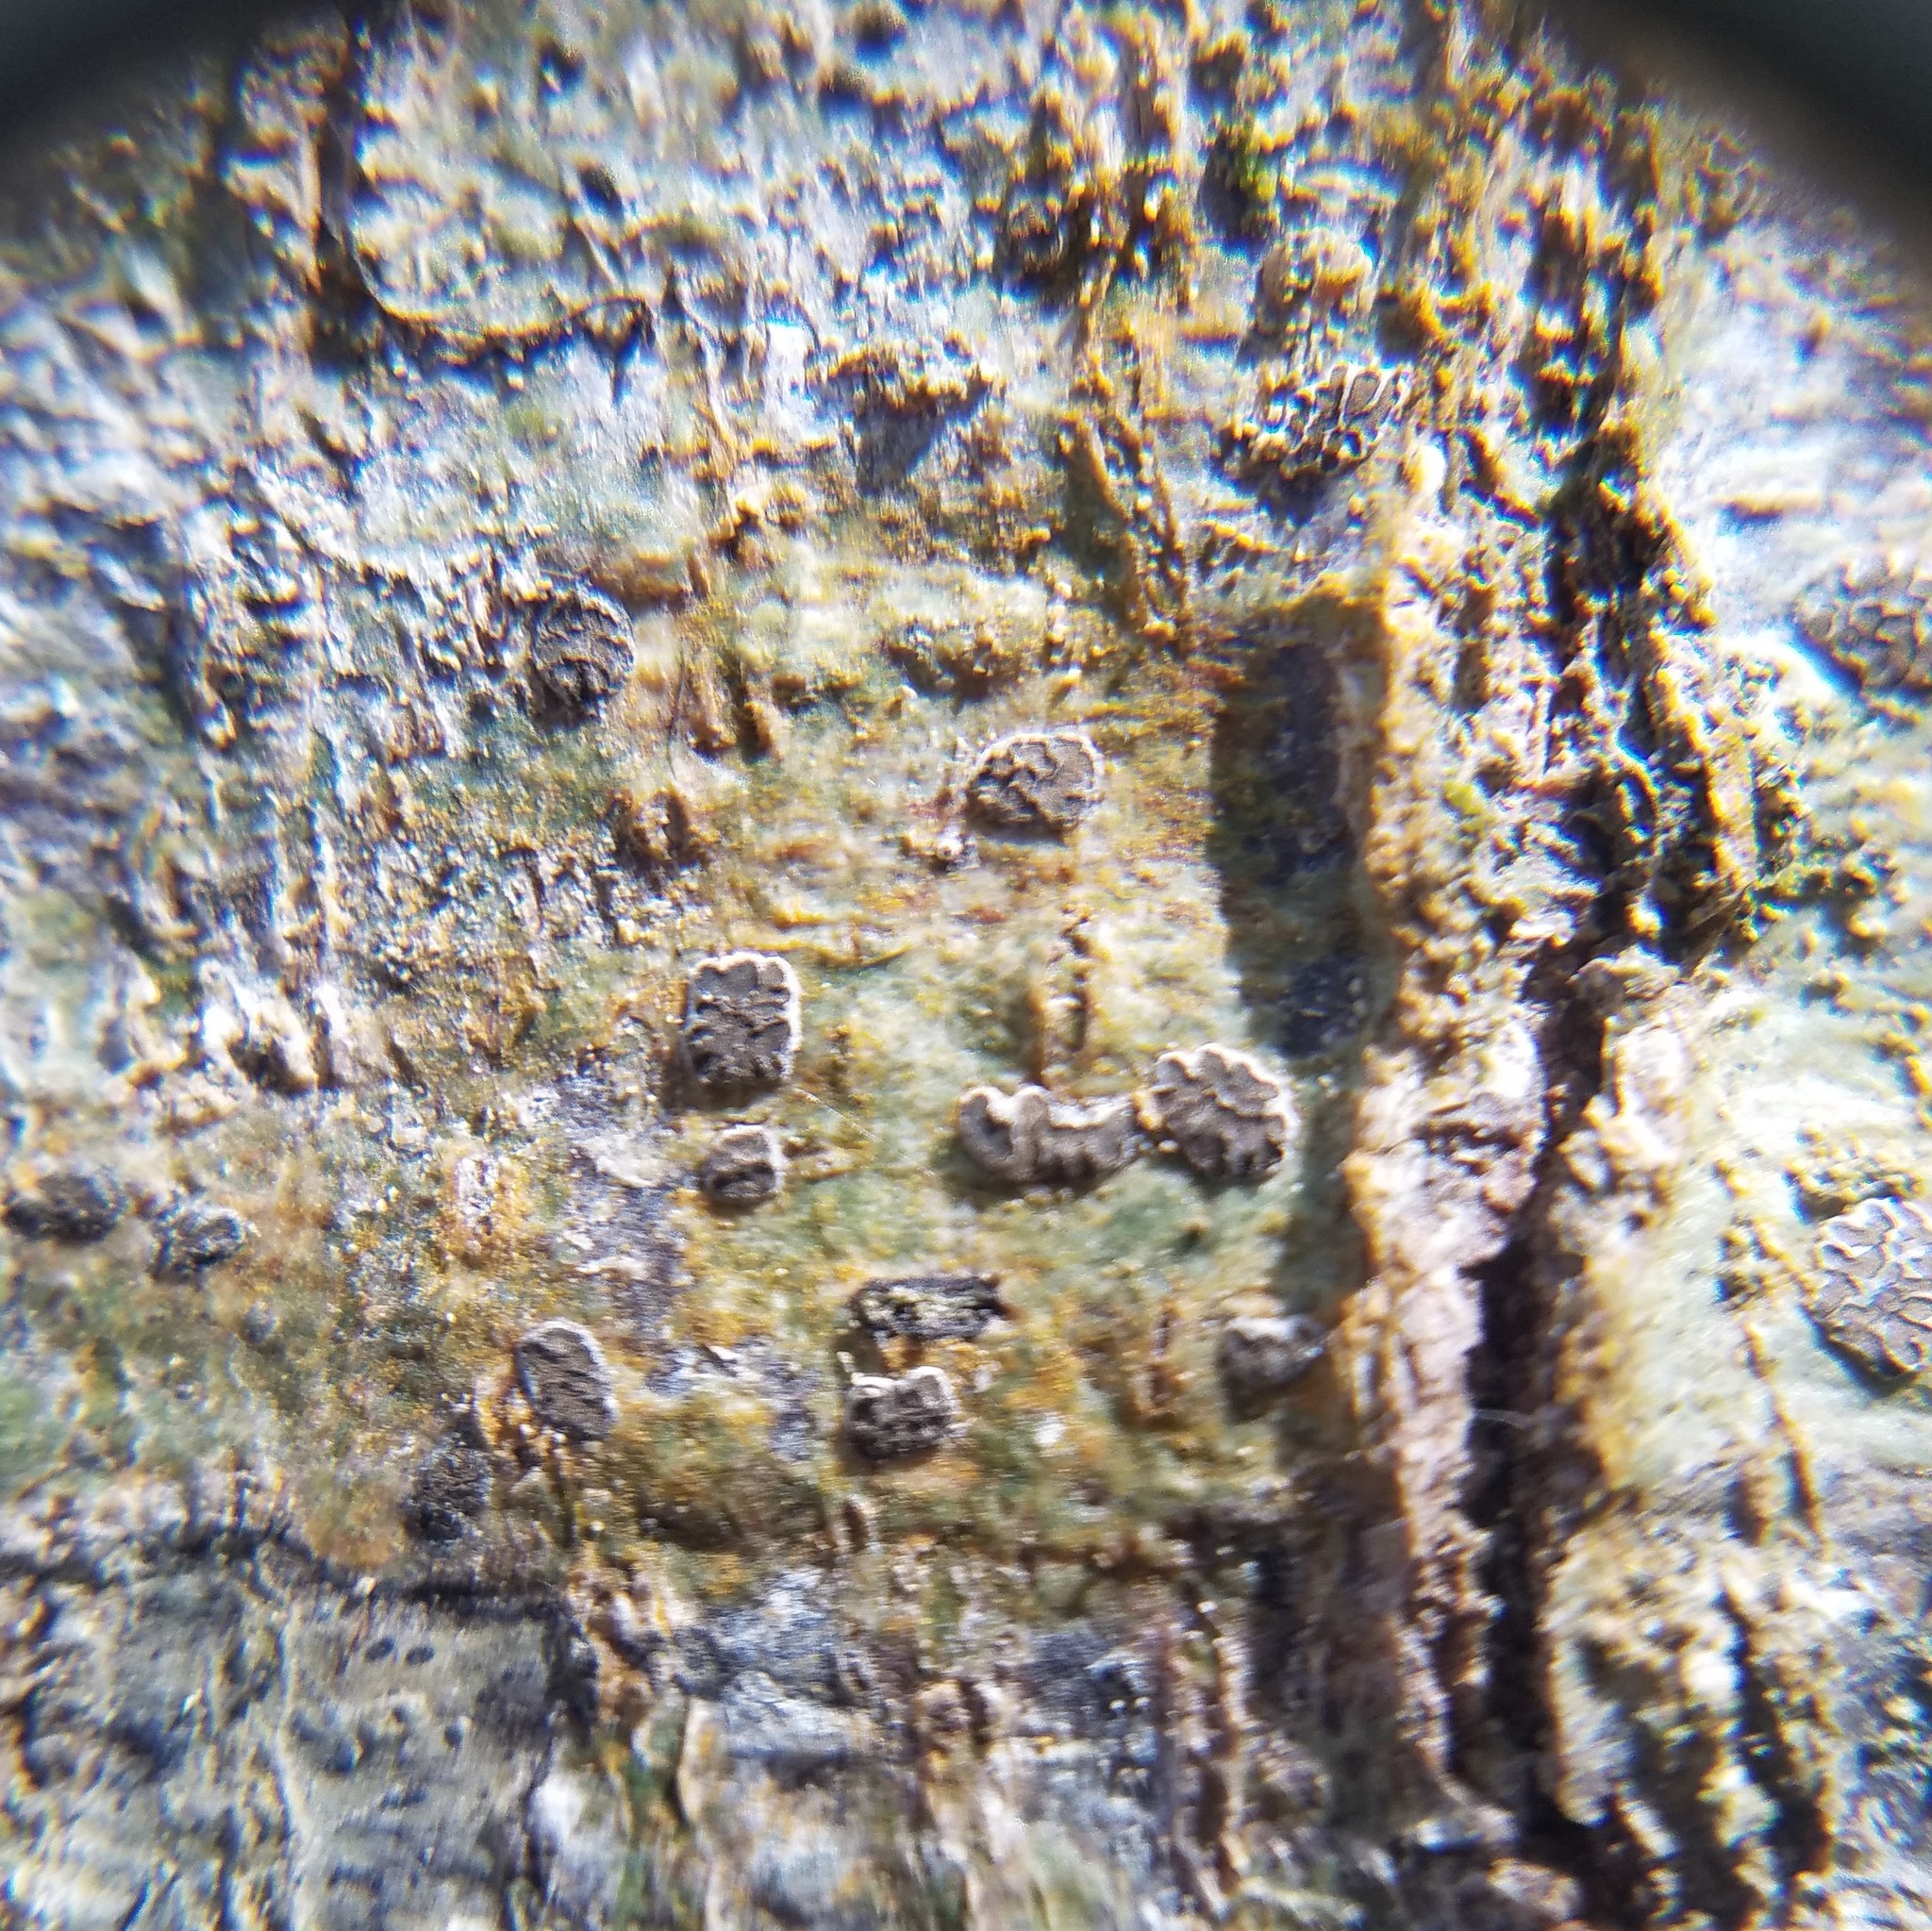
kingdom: Fungi
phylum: Ascomycota
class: Lecanoromycetes
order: Ostropales
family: Graphidaceae
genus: Glyphis
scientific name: Glyphis cicatricosa
